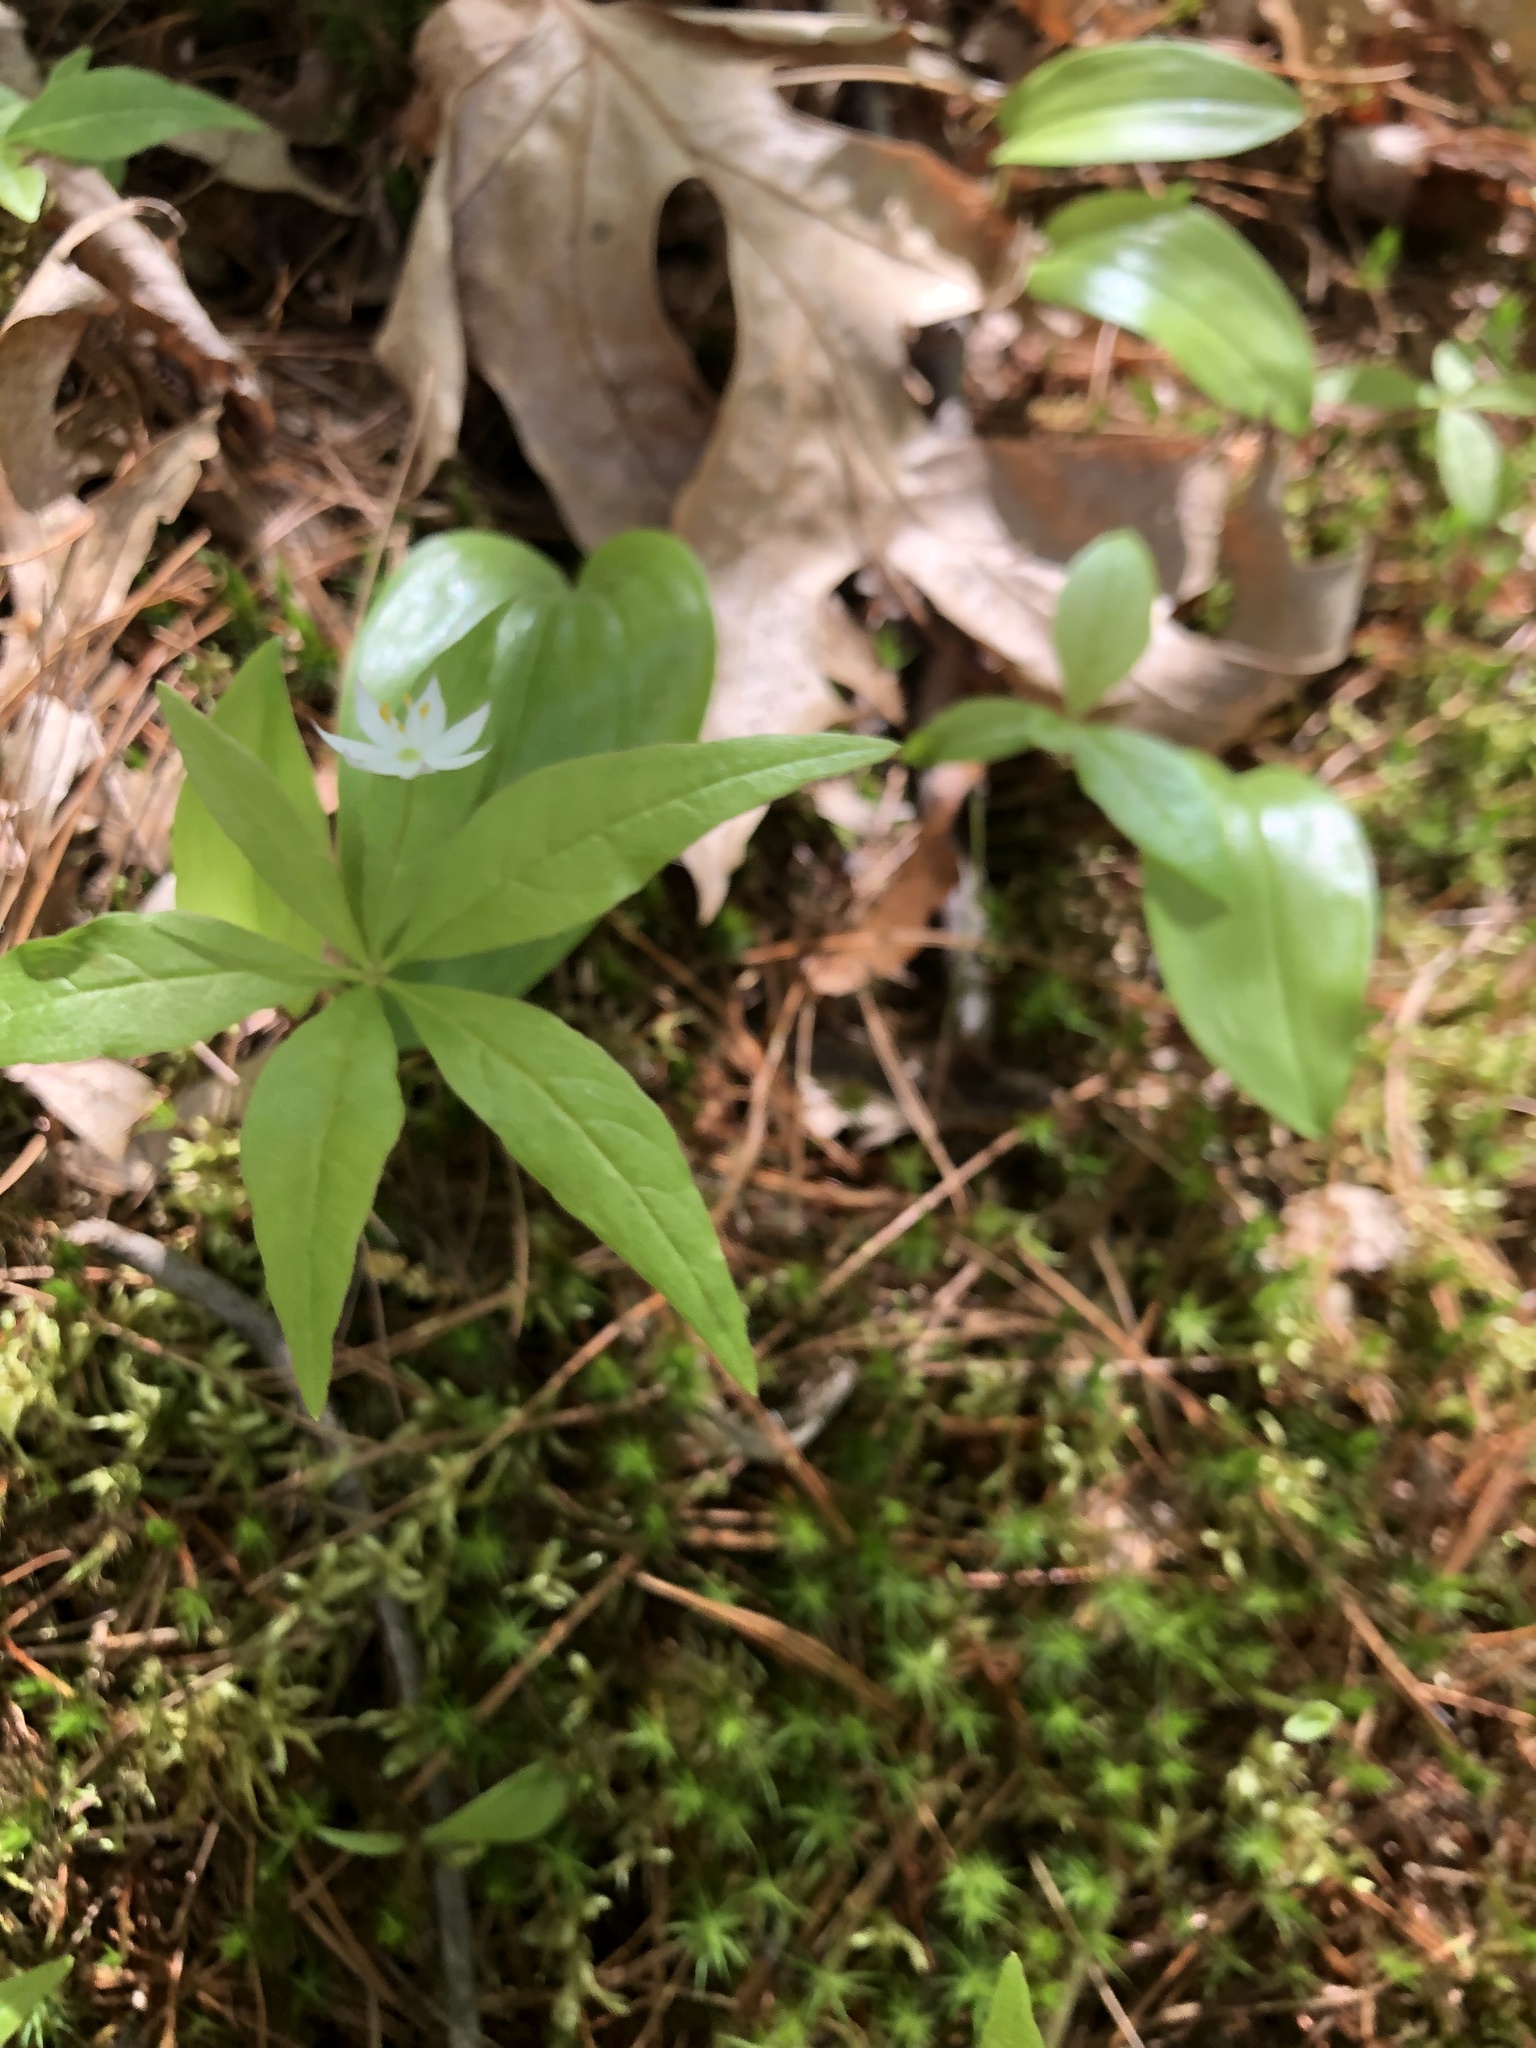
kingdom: Plantae
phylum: Tracheophyta
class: Magnoliopsida
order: Ericales
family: Primulaceae
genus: Lysimachia
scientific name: Lysimachia borealis
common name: American starflower
